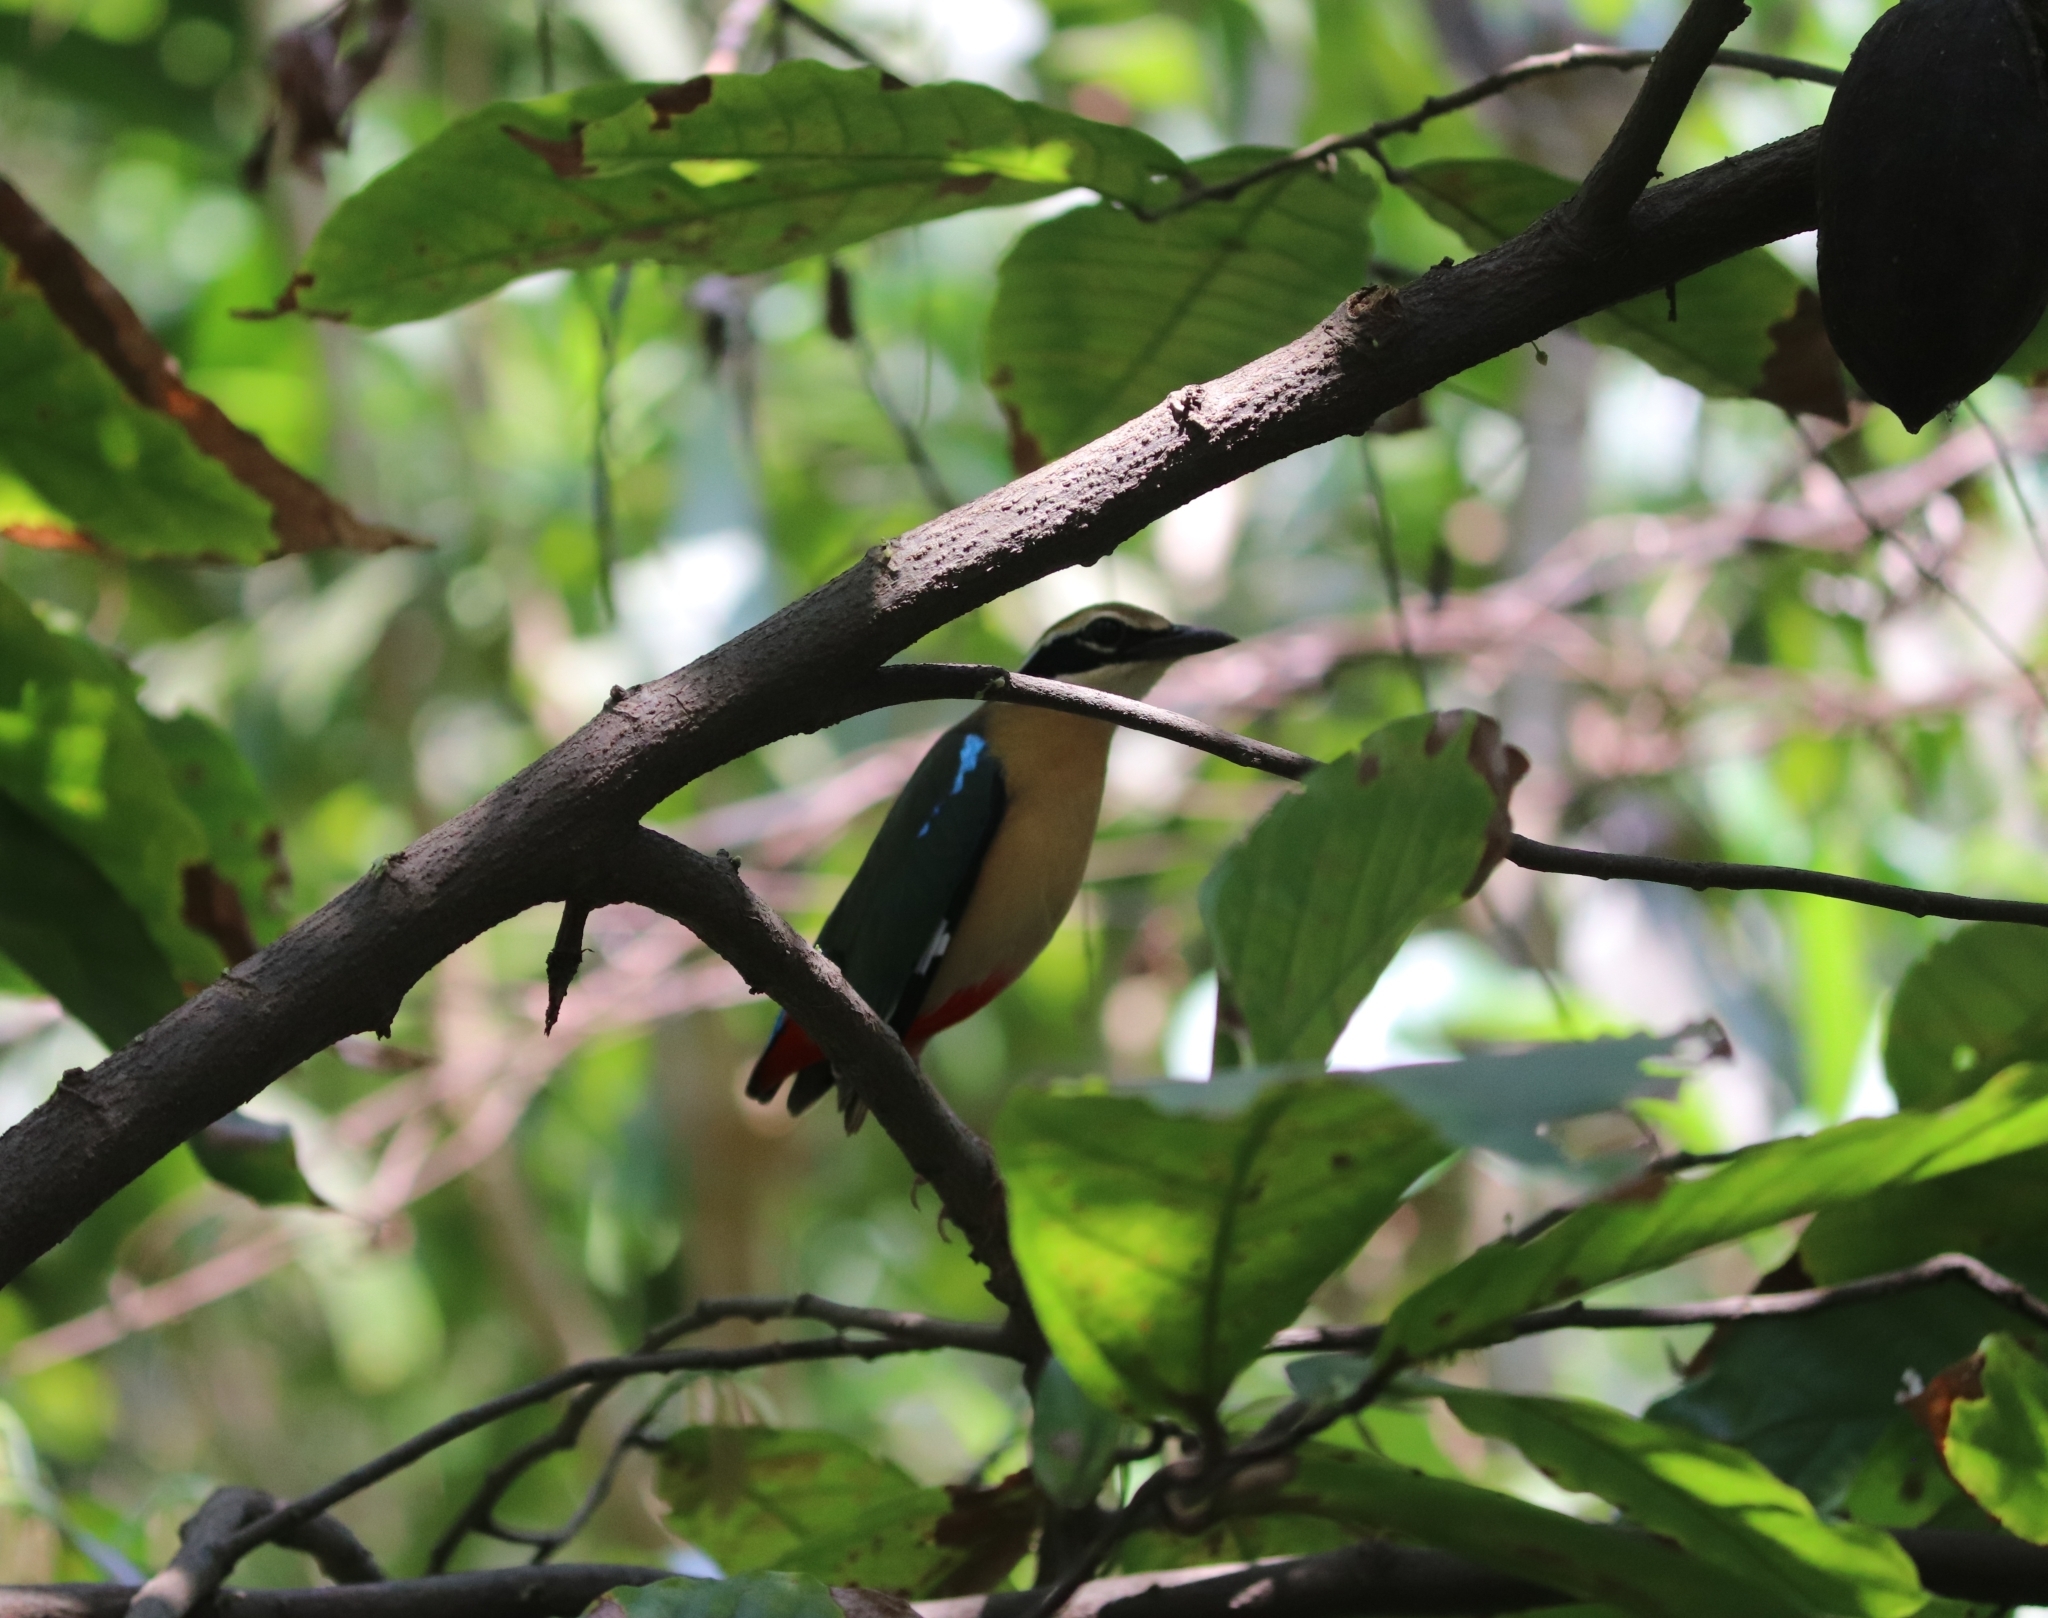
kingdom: Animalia
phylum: Chordata
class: Aves
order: Passeriformes
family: Pittidae
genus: Pitta
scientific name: Pitta brachyura
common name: Indian pitta
